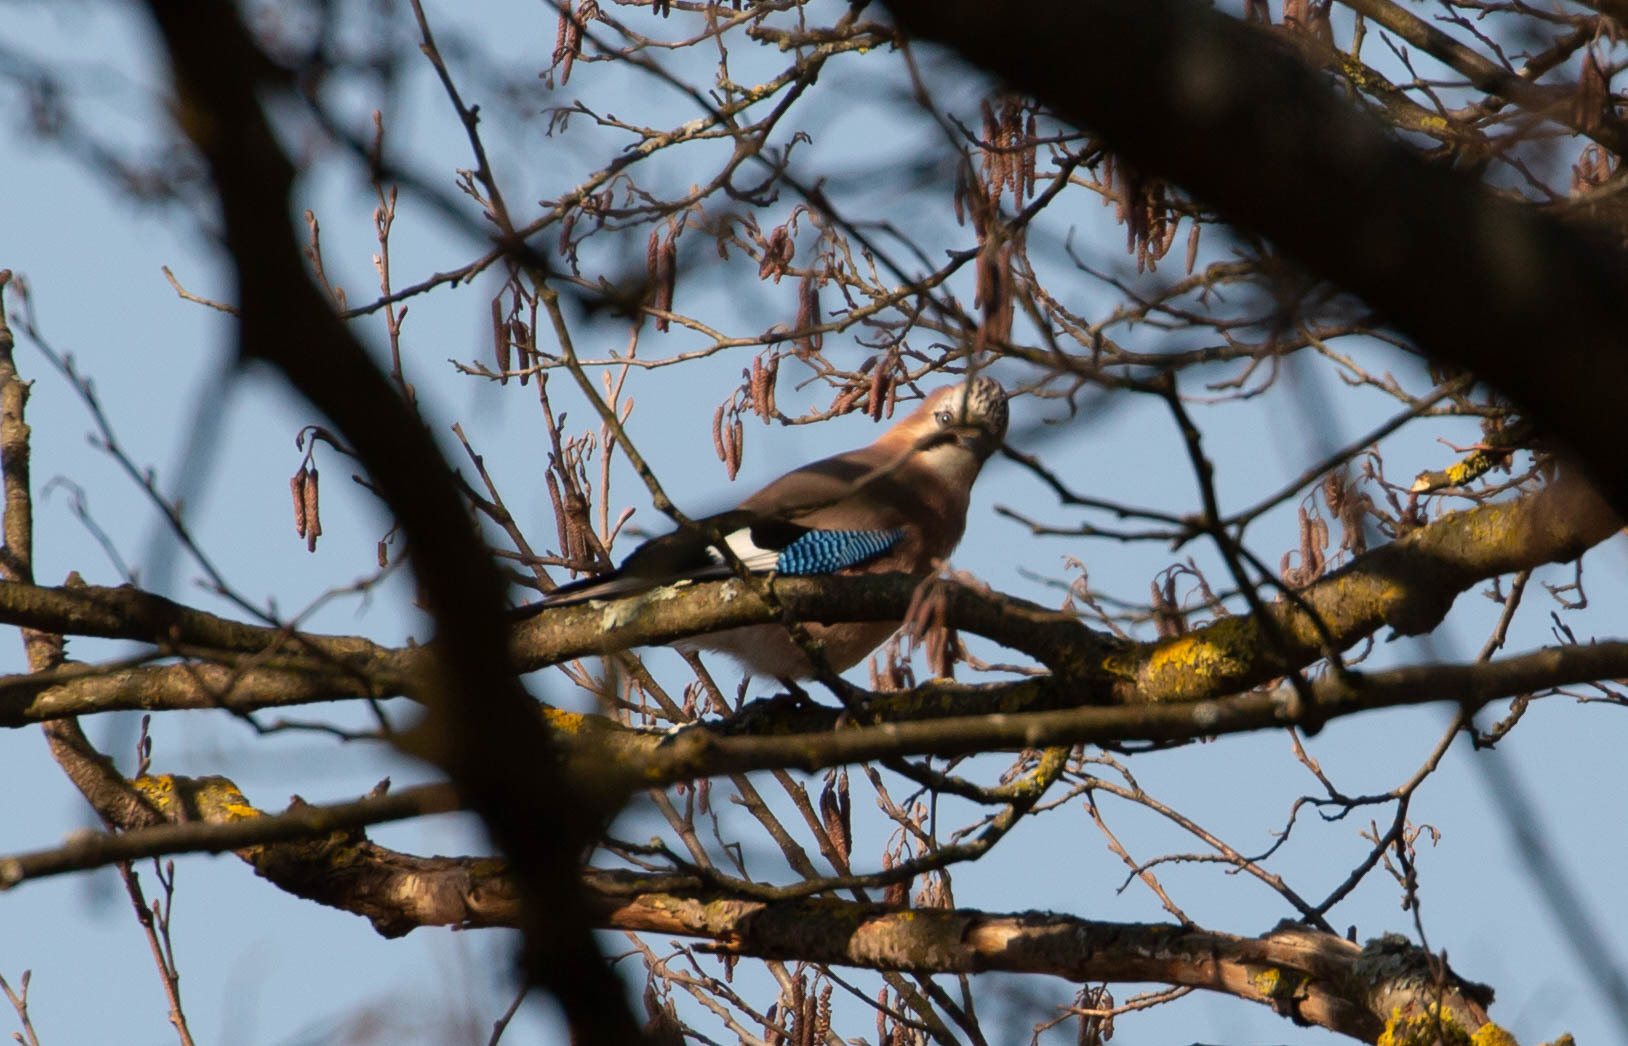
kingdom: Animalia
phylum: Chordata
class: Aves
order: Passeriformes
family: Corvidae
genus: Garrulus
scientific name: Garrulus glandarius
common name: Eurasian jay
